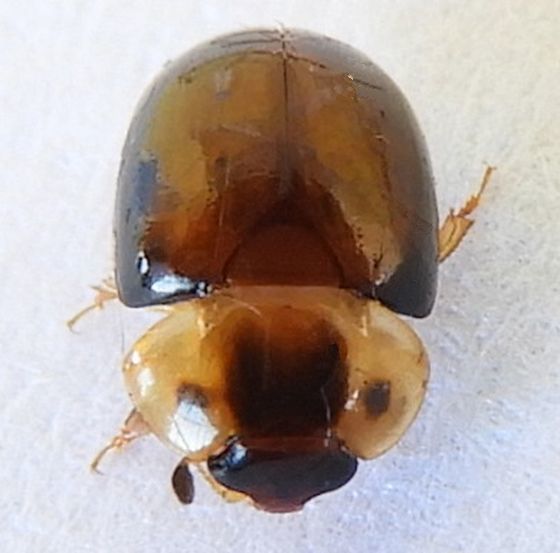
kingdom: Animalia
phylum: Arthropoda
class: Insecta
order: Coleoptera
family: Nitidulidae
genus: Pallodes
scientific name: Pallodes plateosus
